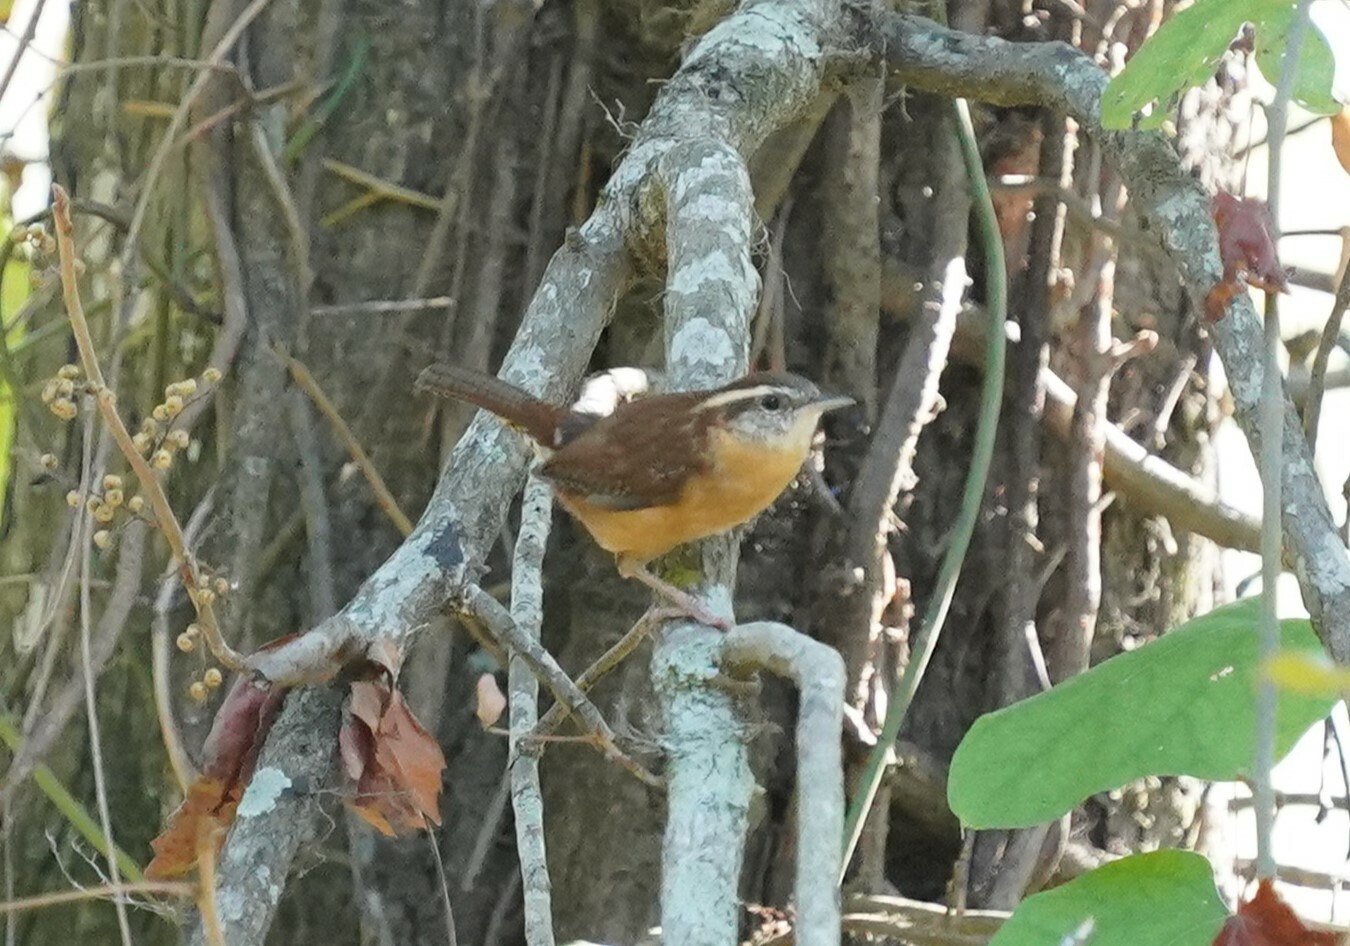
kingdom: Animalia
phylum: Chordata
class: Aves
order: Passeriformes
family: Troglodytidae
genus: Thryothorus
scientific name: Thryothorus ludovicianus
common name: Carolina wren
